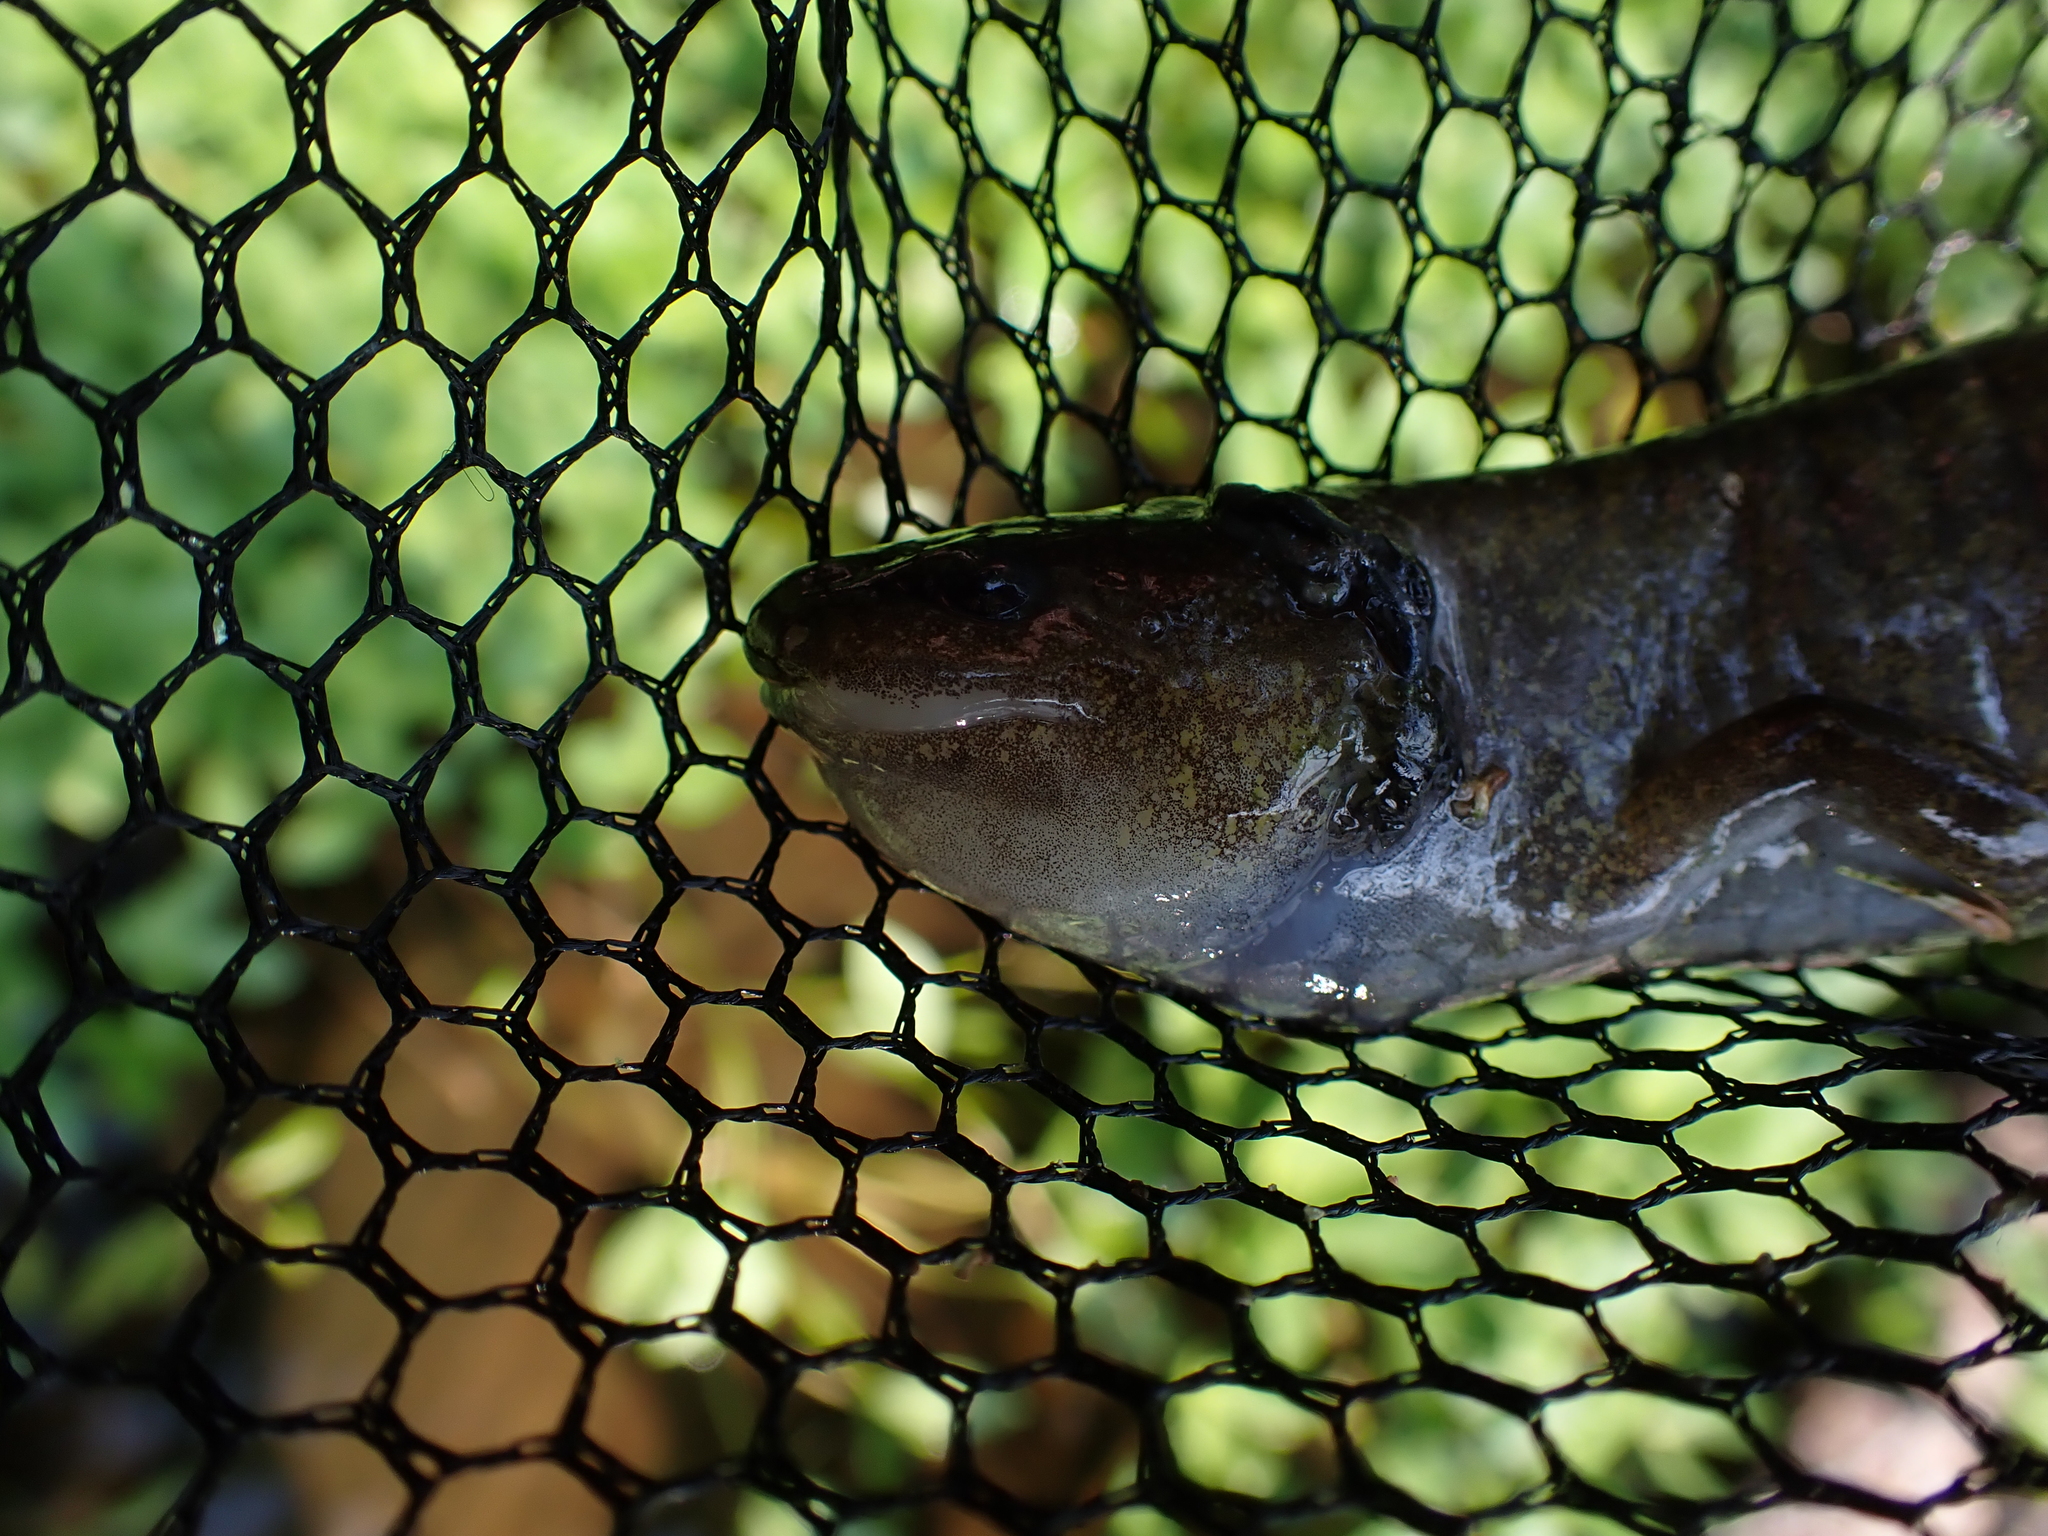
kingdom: Animalia
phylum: Chordata
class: Amphibia
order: Caudata
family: Ambystomatidae
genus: Ambystoma
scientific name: Ambystoma gracile
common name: Northwestern salamander
